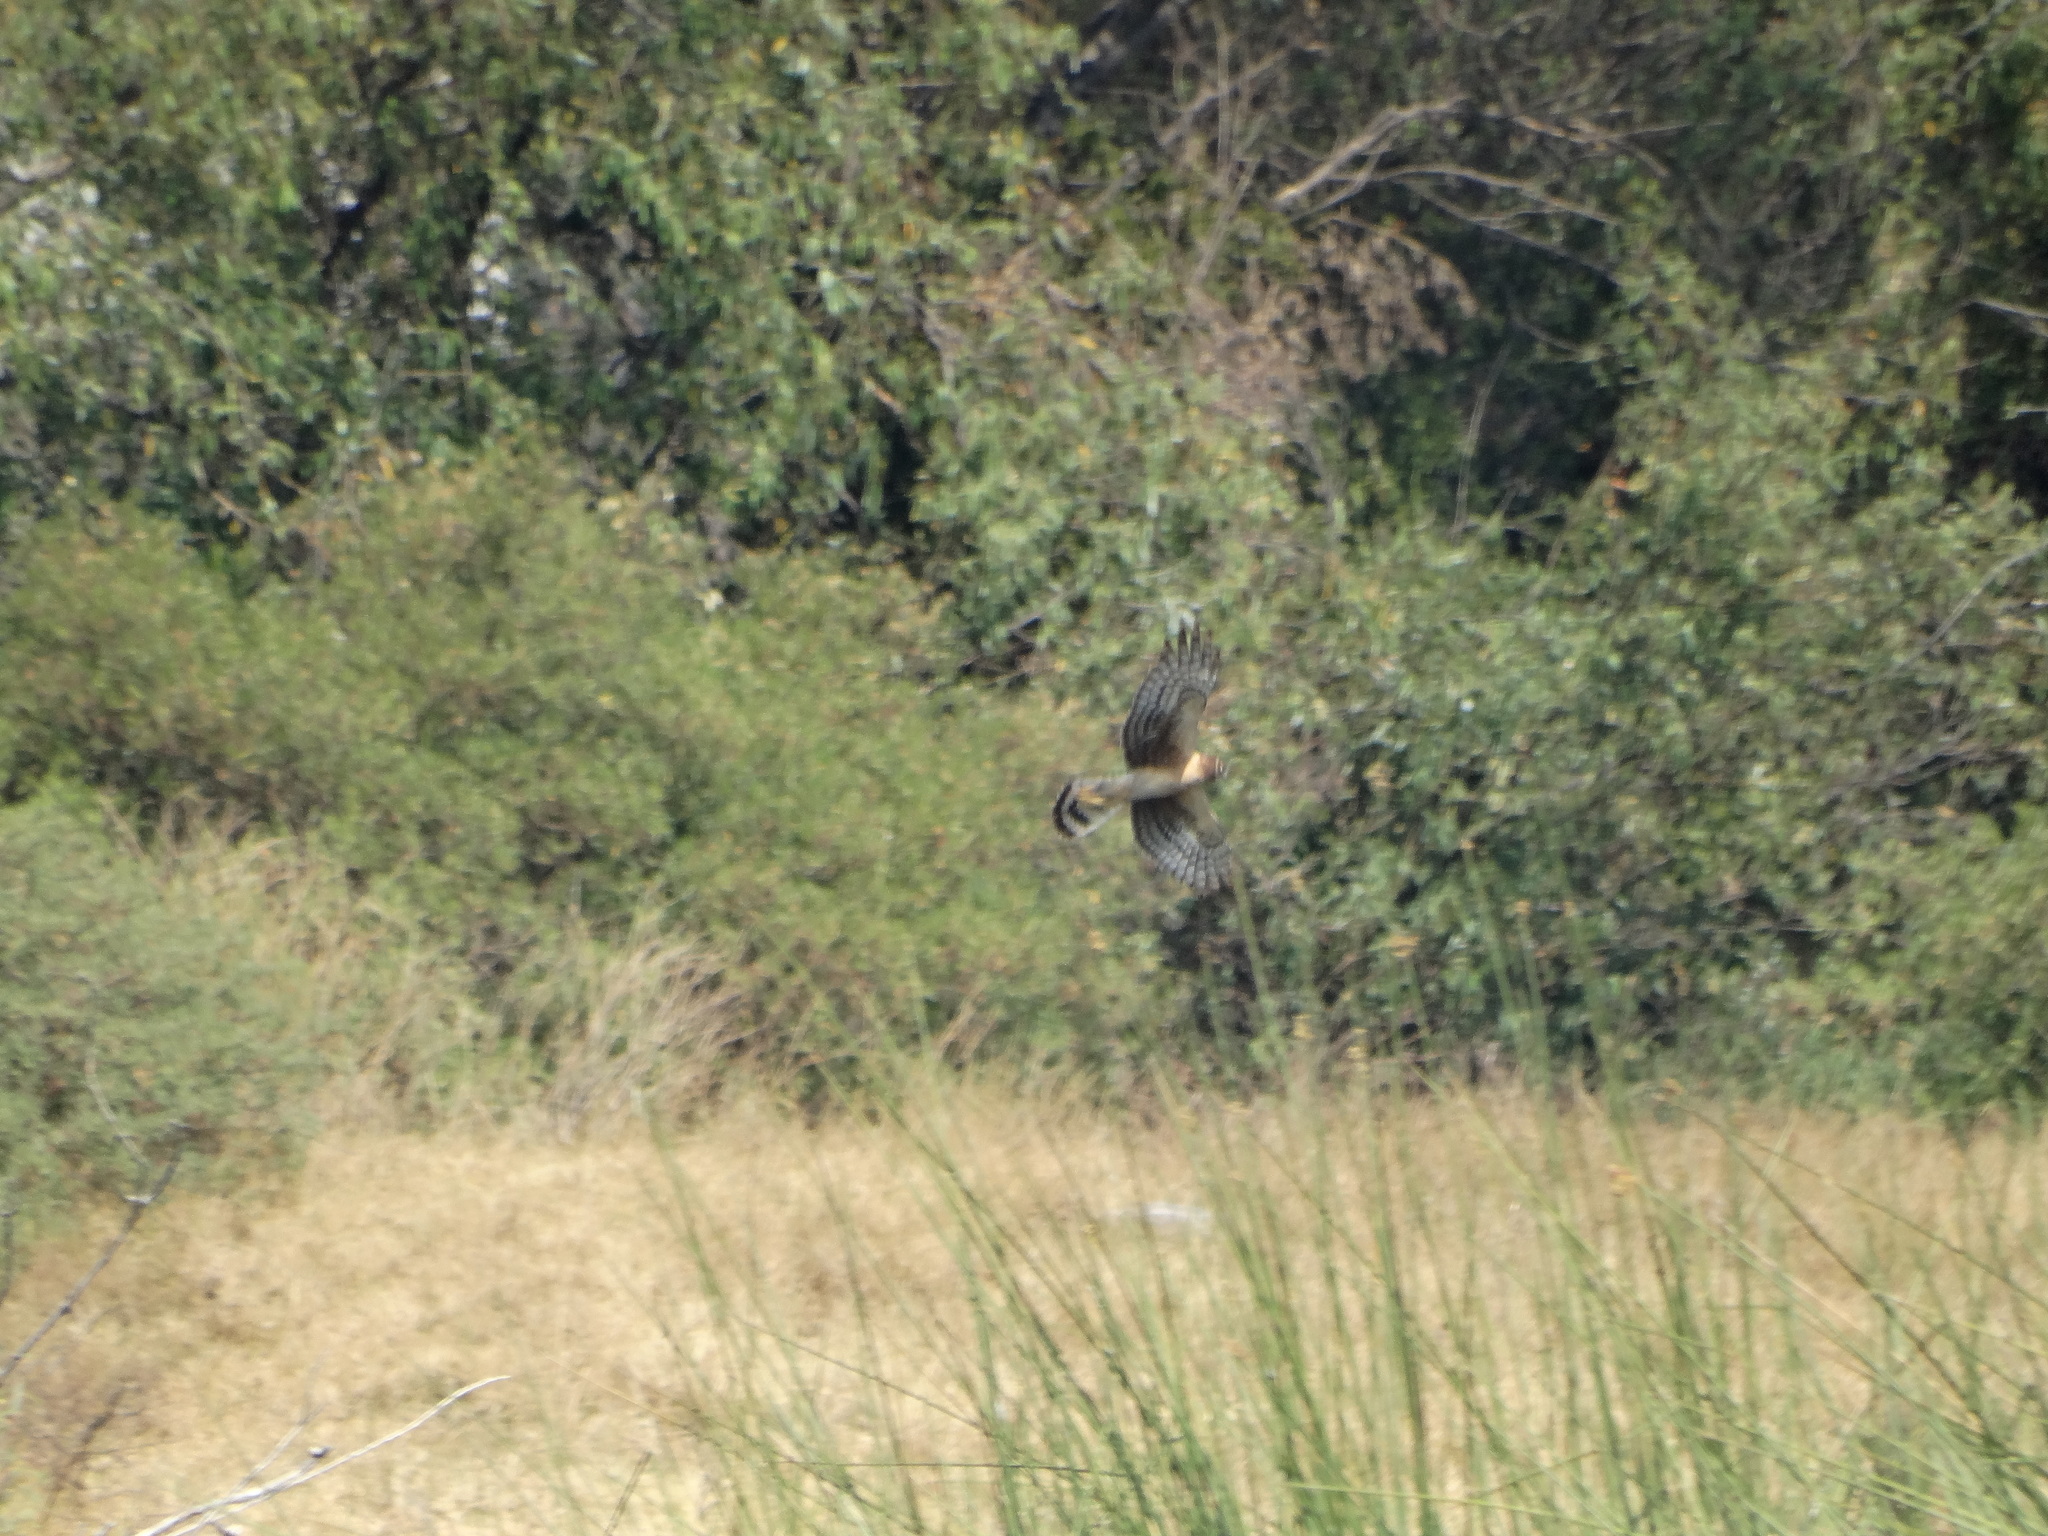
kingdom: Animalia
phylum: Chordata
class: Aves
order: Accipitriformes
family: Accipitridae
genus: Circus
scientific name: Circus cyaneus
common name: Hen harrier
